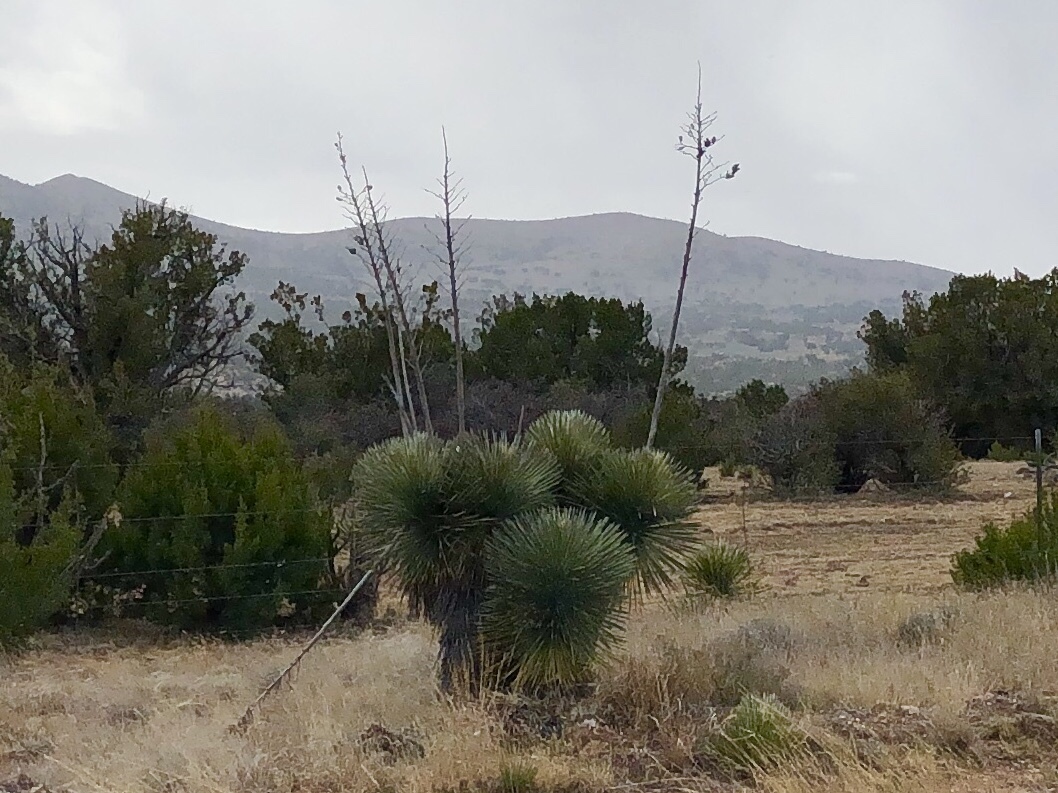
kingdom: Plantae
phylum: Tracheophyta
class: Liliopsida
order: Asparagales
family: Asparagaceae
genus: Yucca
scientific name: Yucca elata
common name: Palmella
